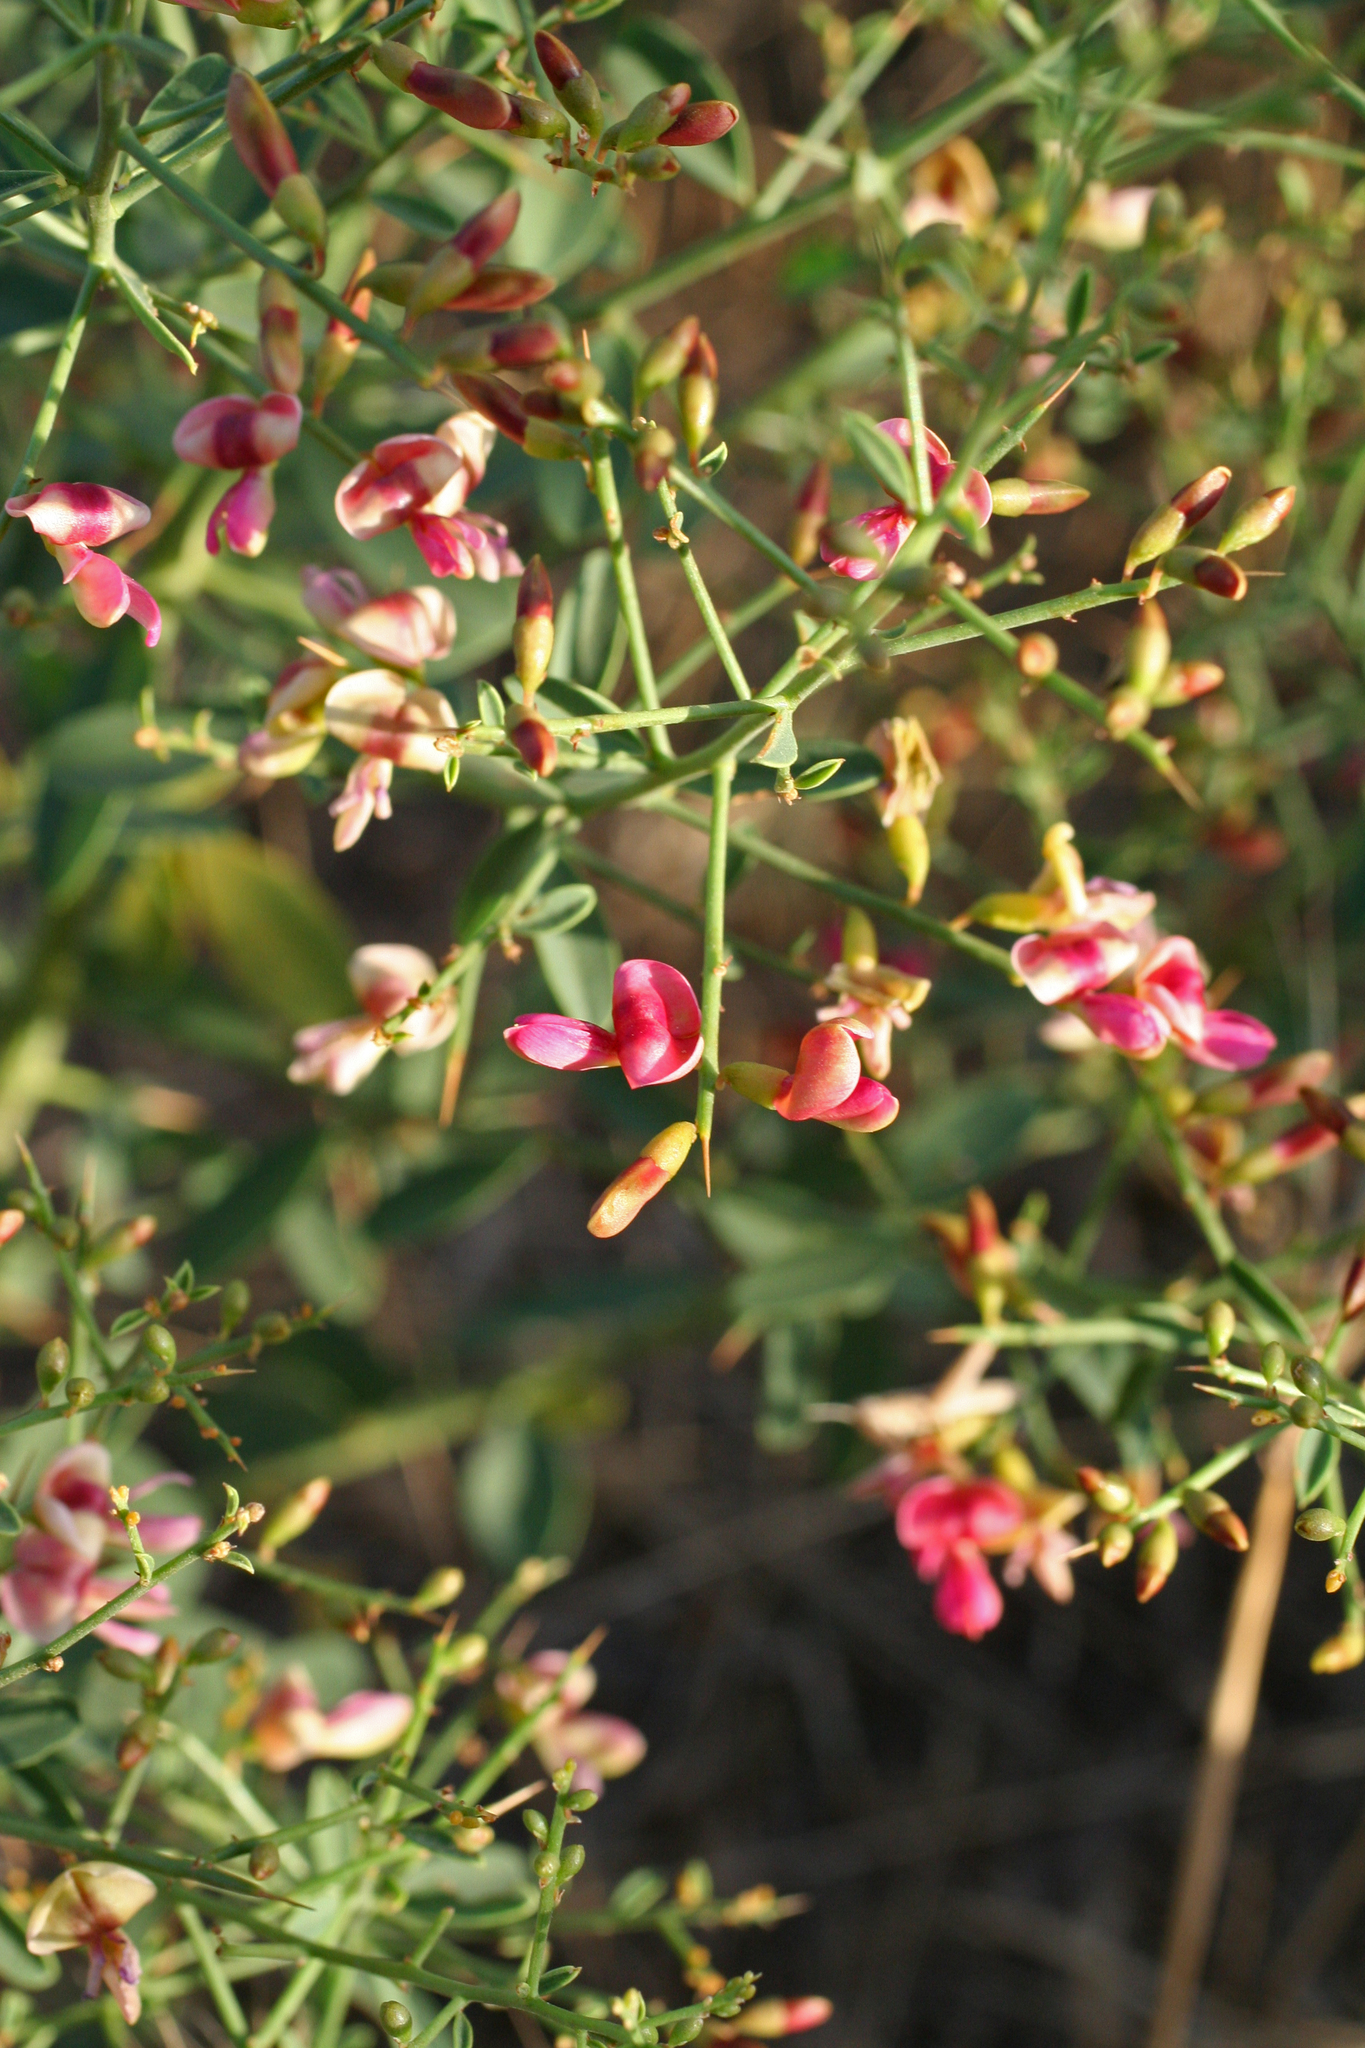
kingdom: Plantae
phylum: Tracheophyta
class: Magnoliopsida
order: Fabales
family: Fabaceae
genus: Alhagi
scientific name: Alhagi pseudalhagi
